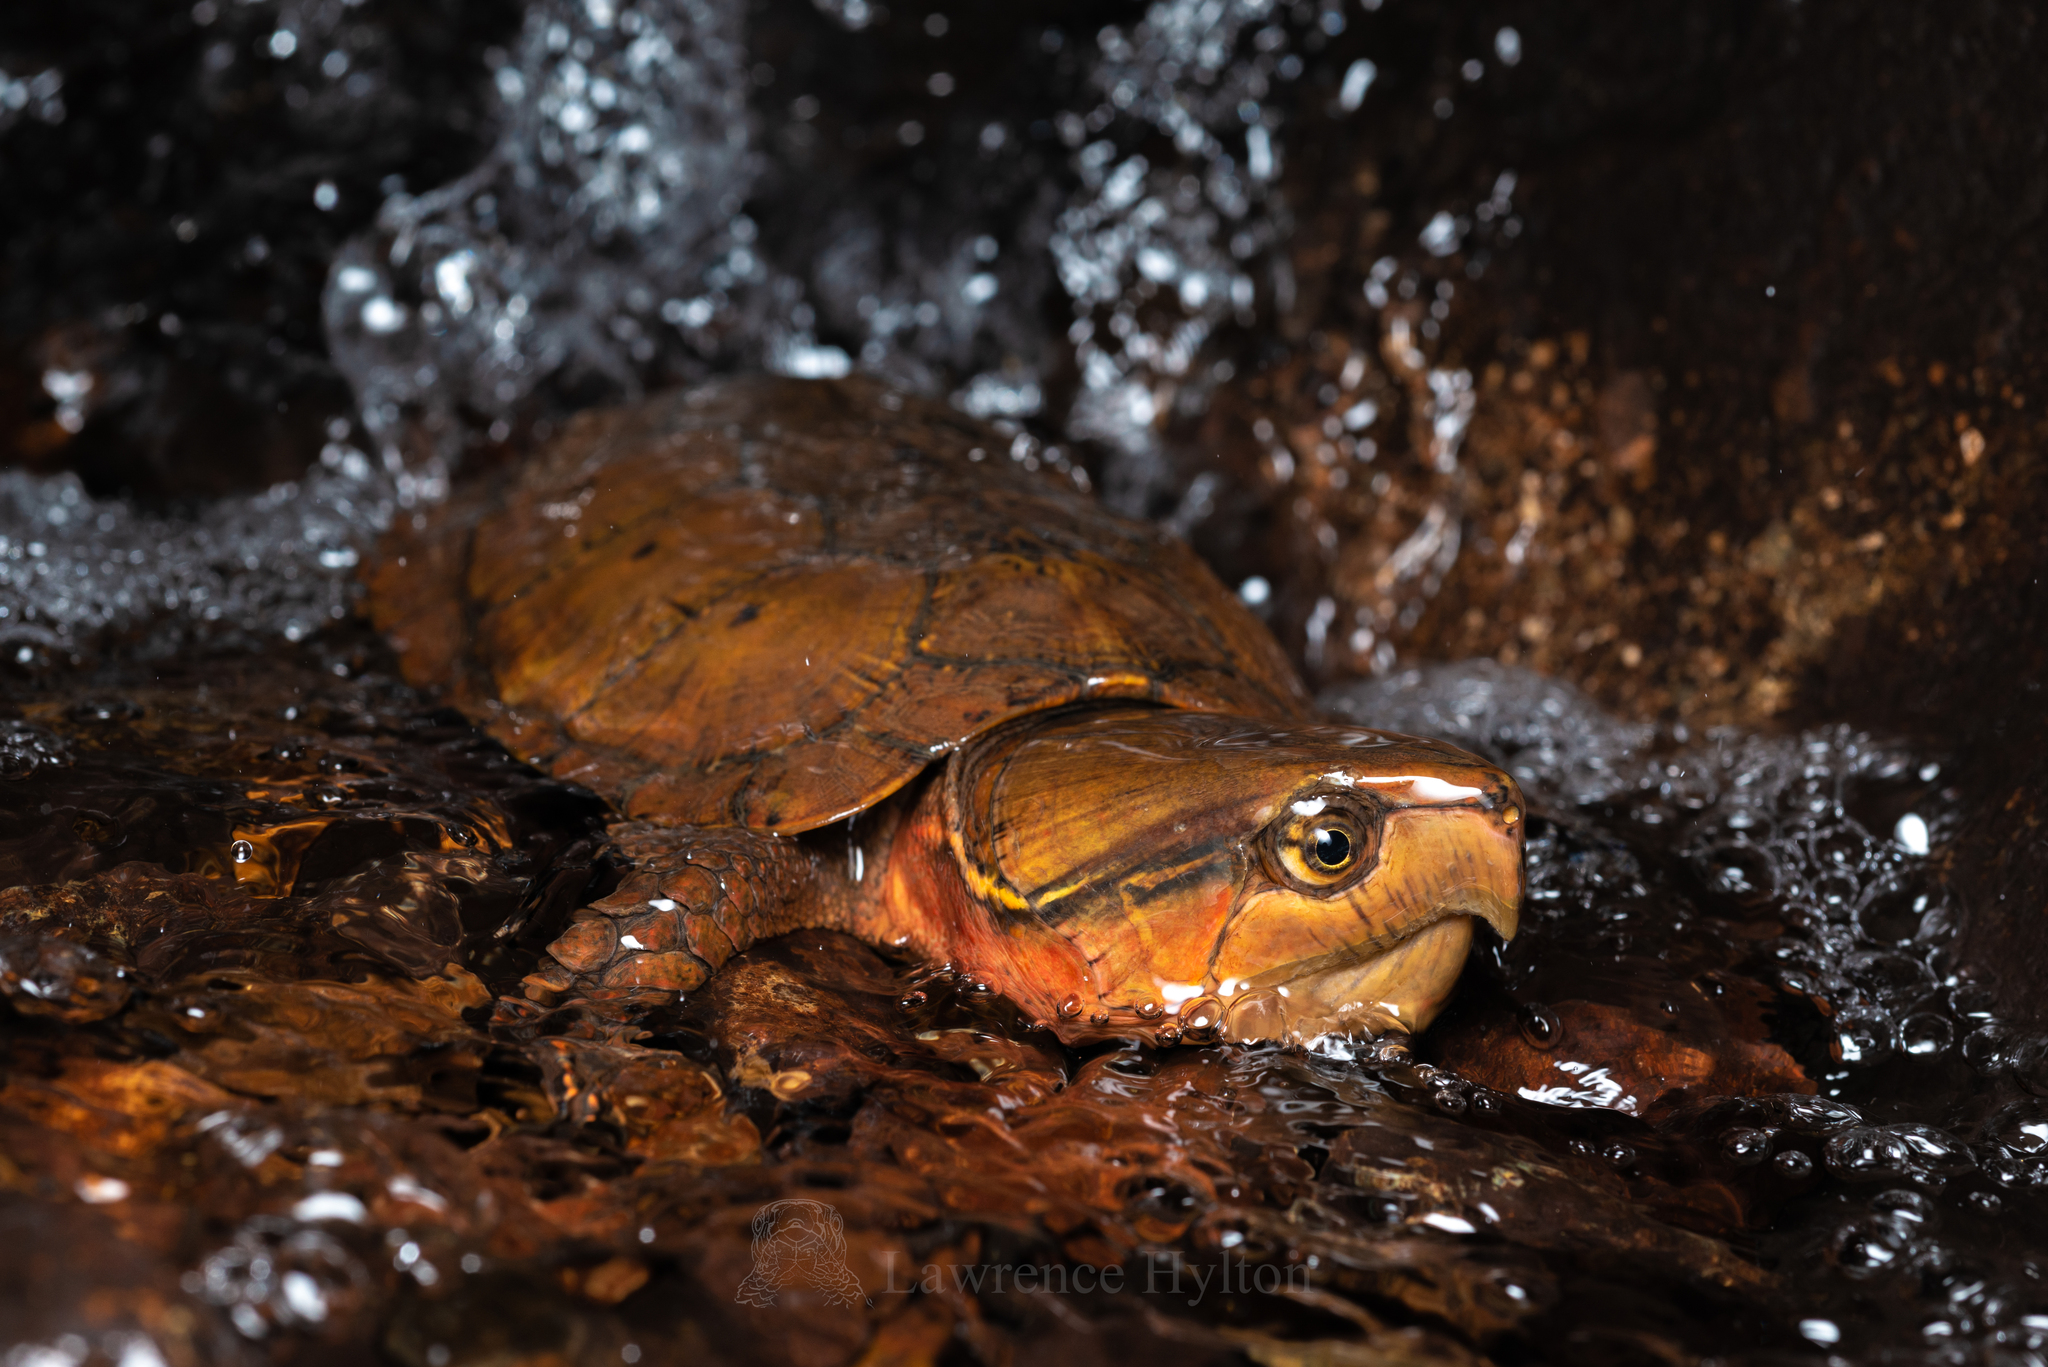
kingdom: Animalia
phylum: Chordata
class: Testudines
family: Platysternidae
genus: Platysternon
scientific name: Platysternon megacephalum
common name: Big-headed turtle
